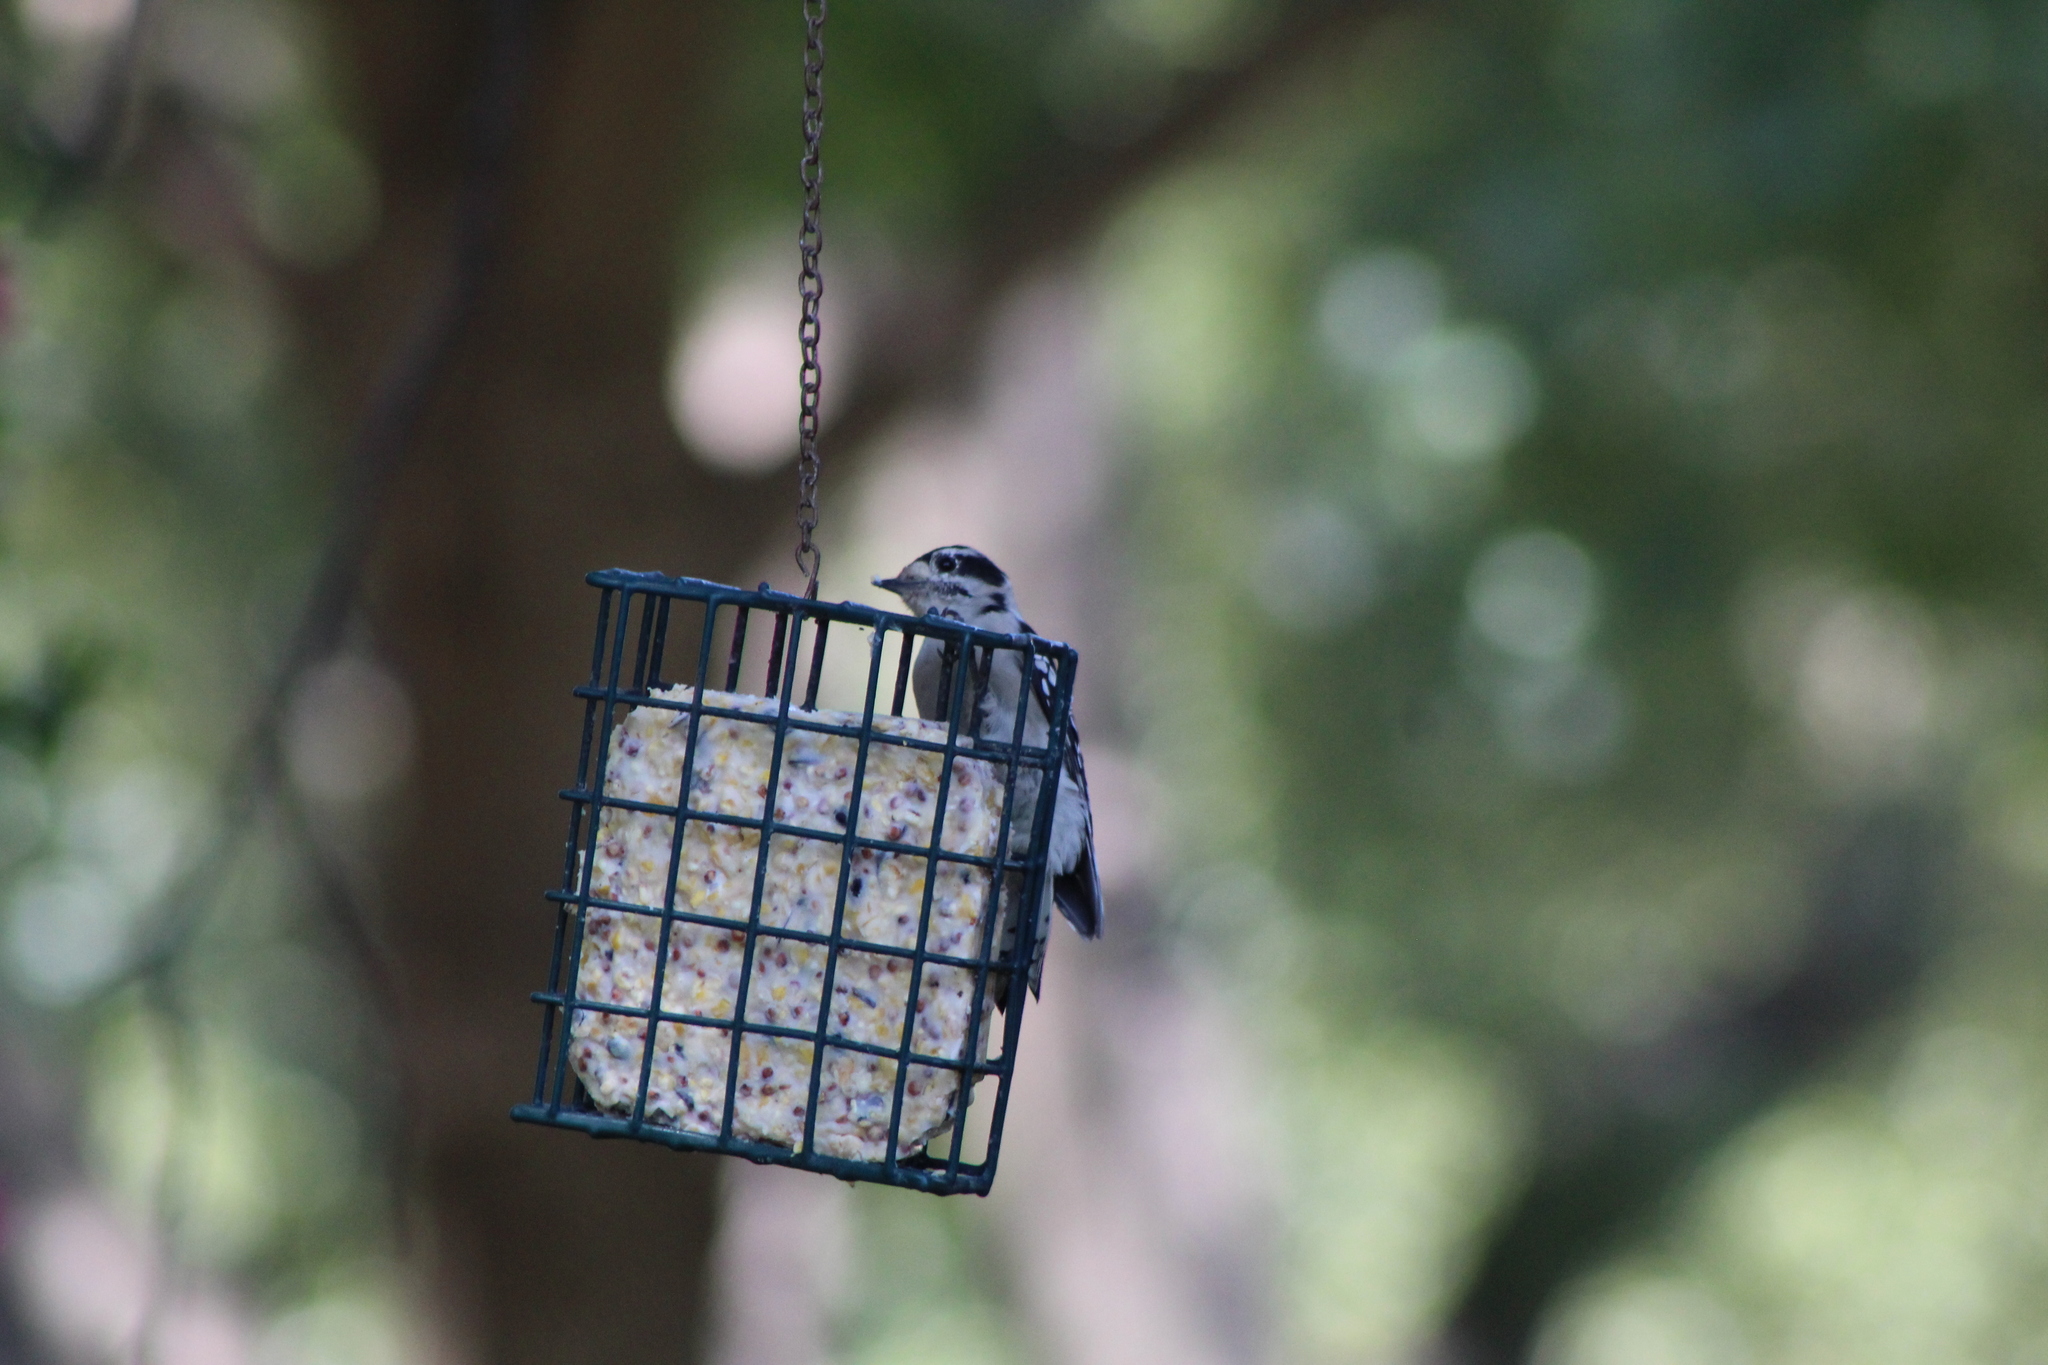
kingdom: Animalia
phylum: Chordata
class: Aves
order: Piciformes
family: Picidae
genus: Dryobates
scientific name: Dryobates pubescens
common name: Downy woodpecker
